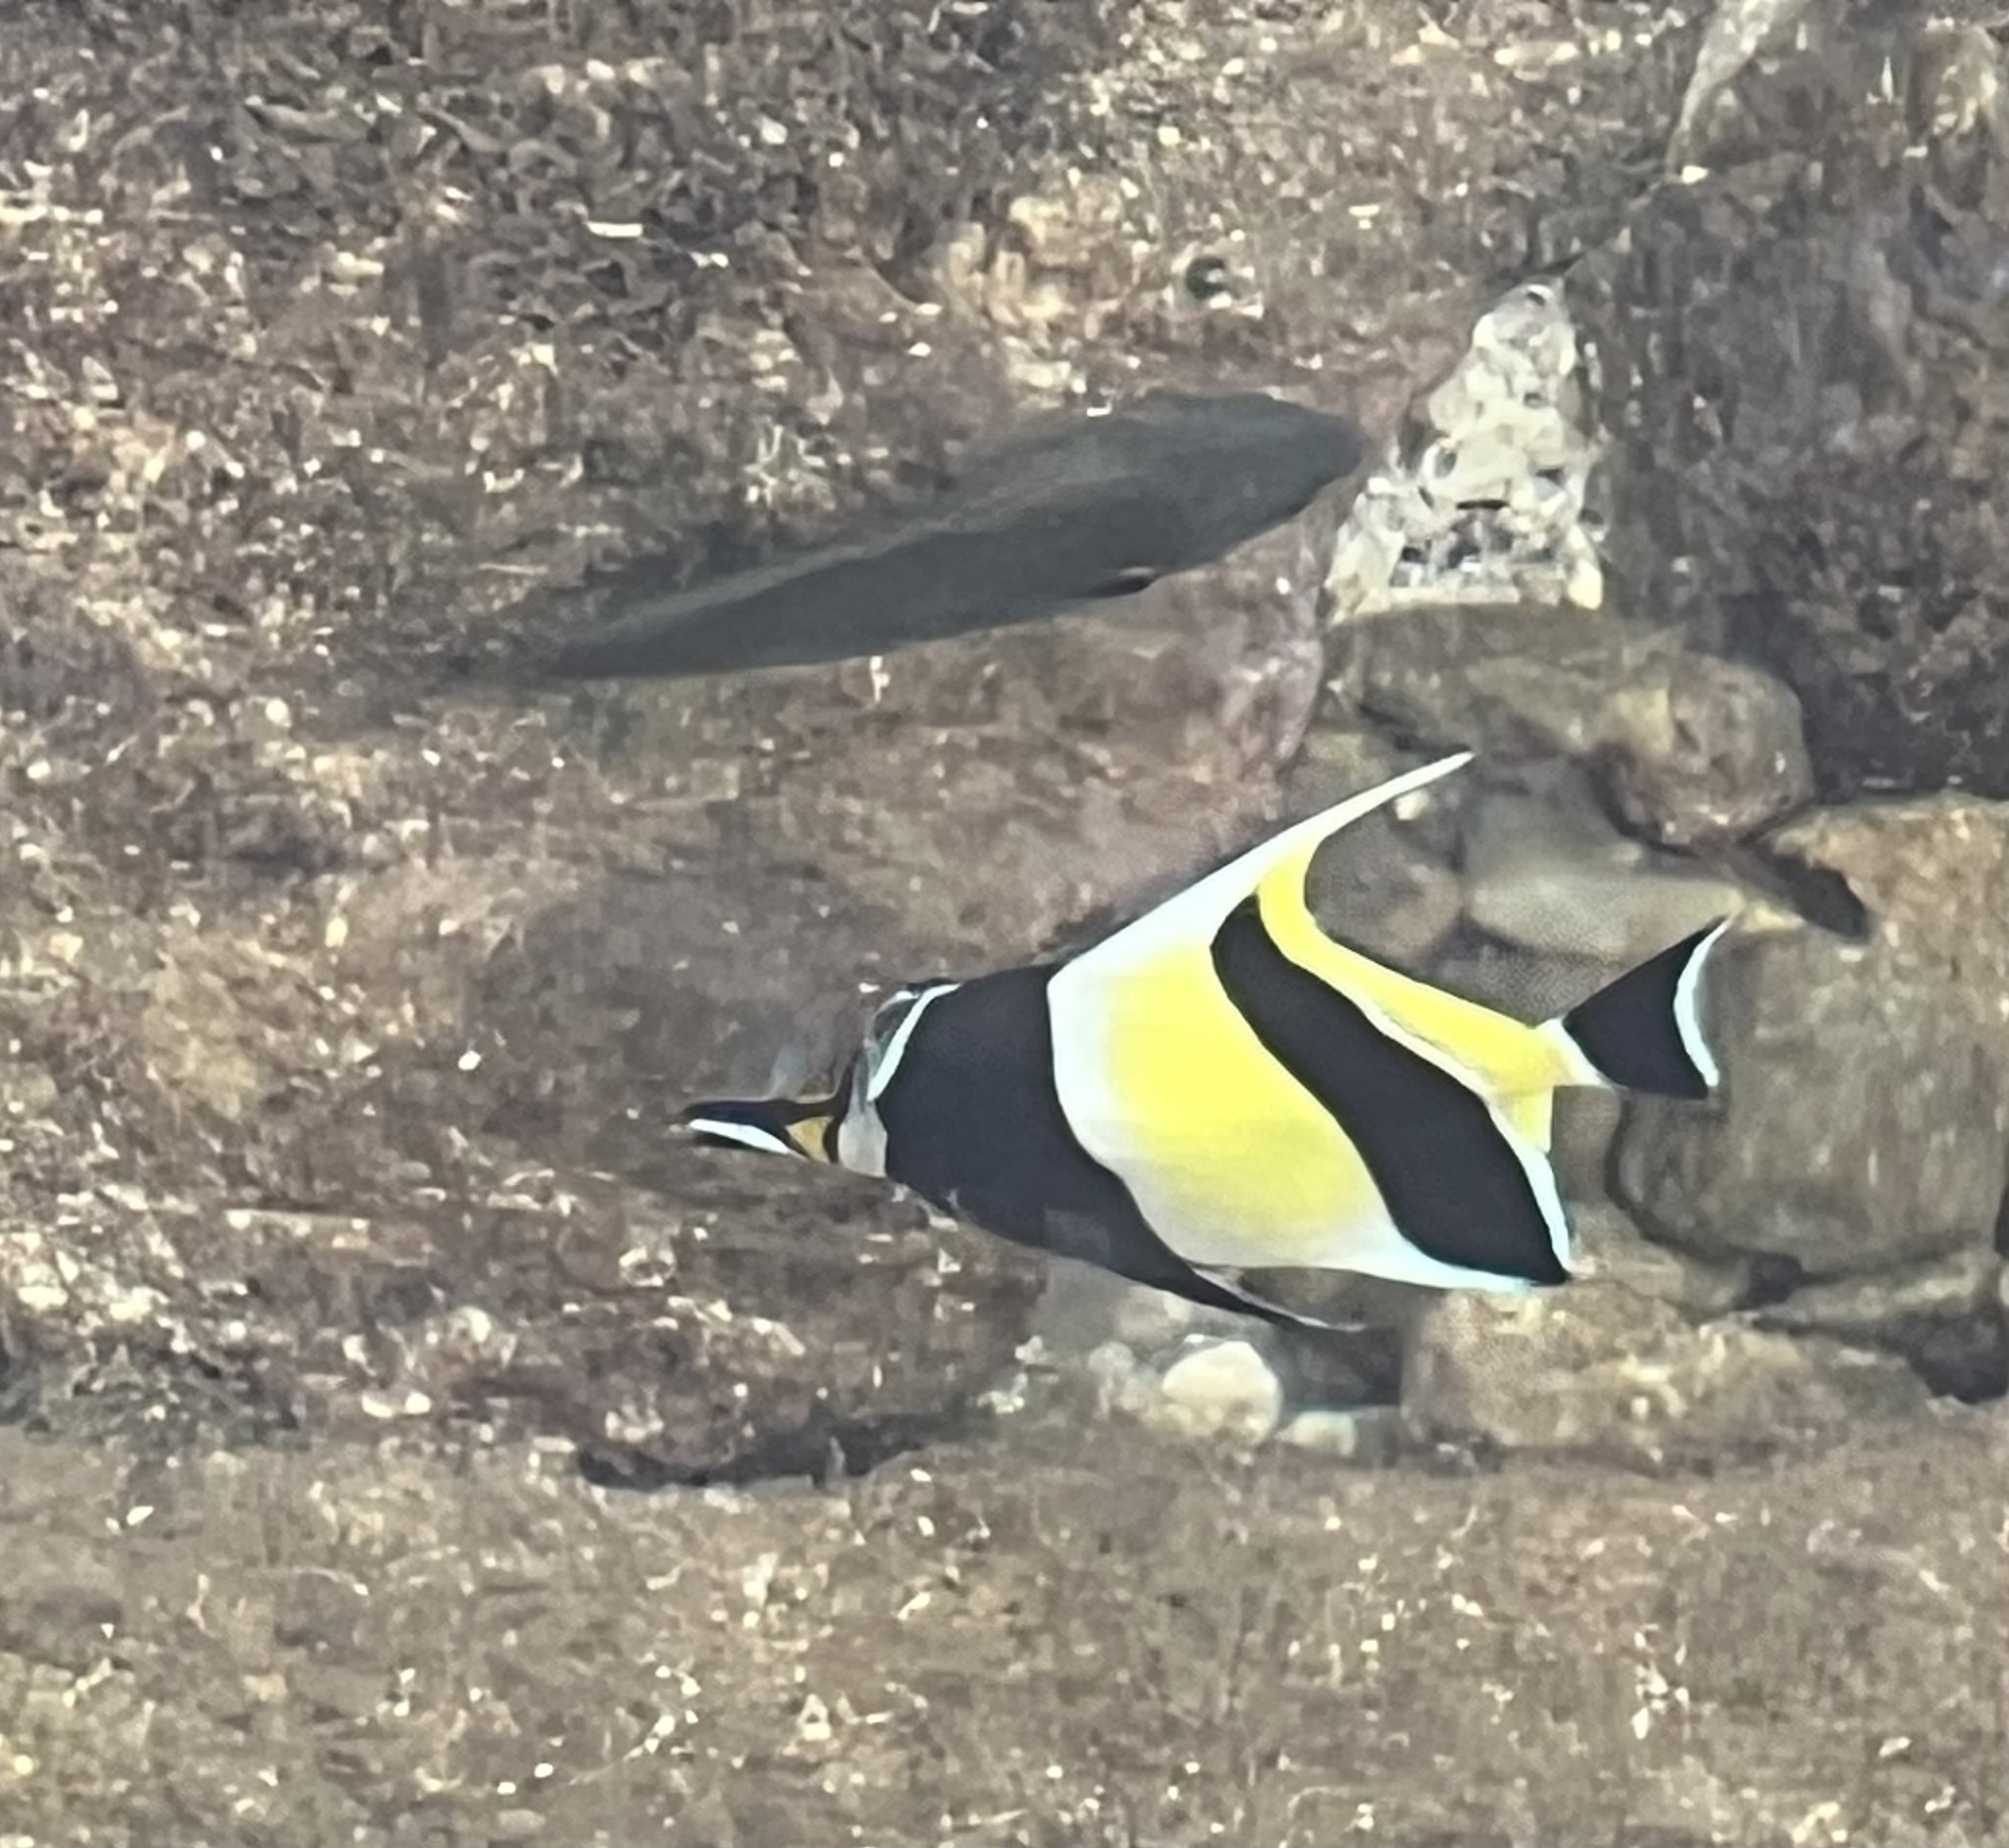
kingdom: Animalia
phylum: Chordata
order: Perciformes
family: Zanclidae
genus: Zanclus
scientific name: Zanclus cornutus
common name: Moorish idol
